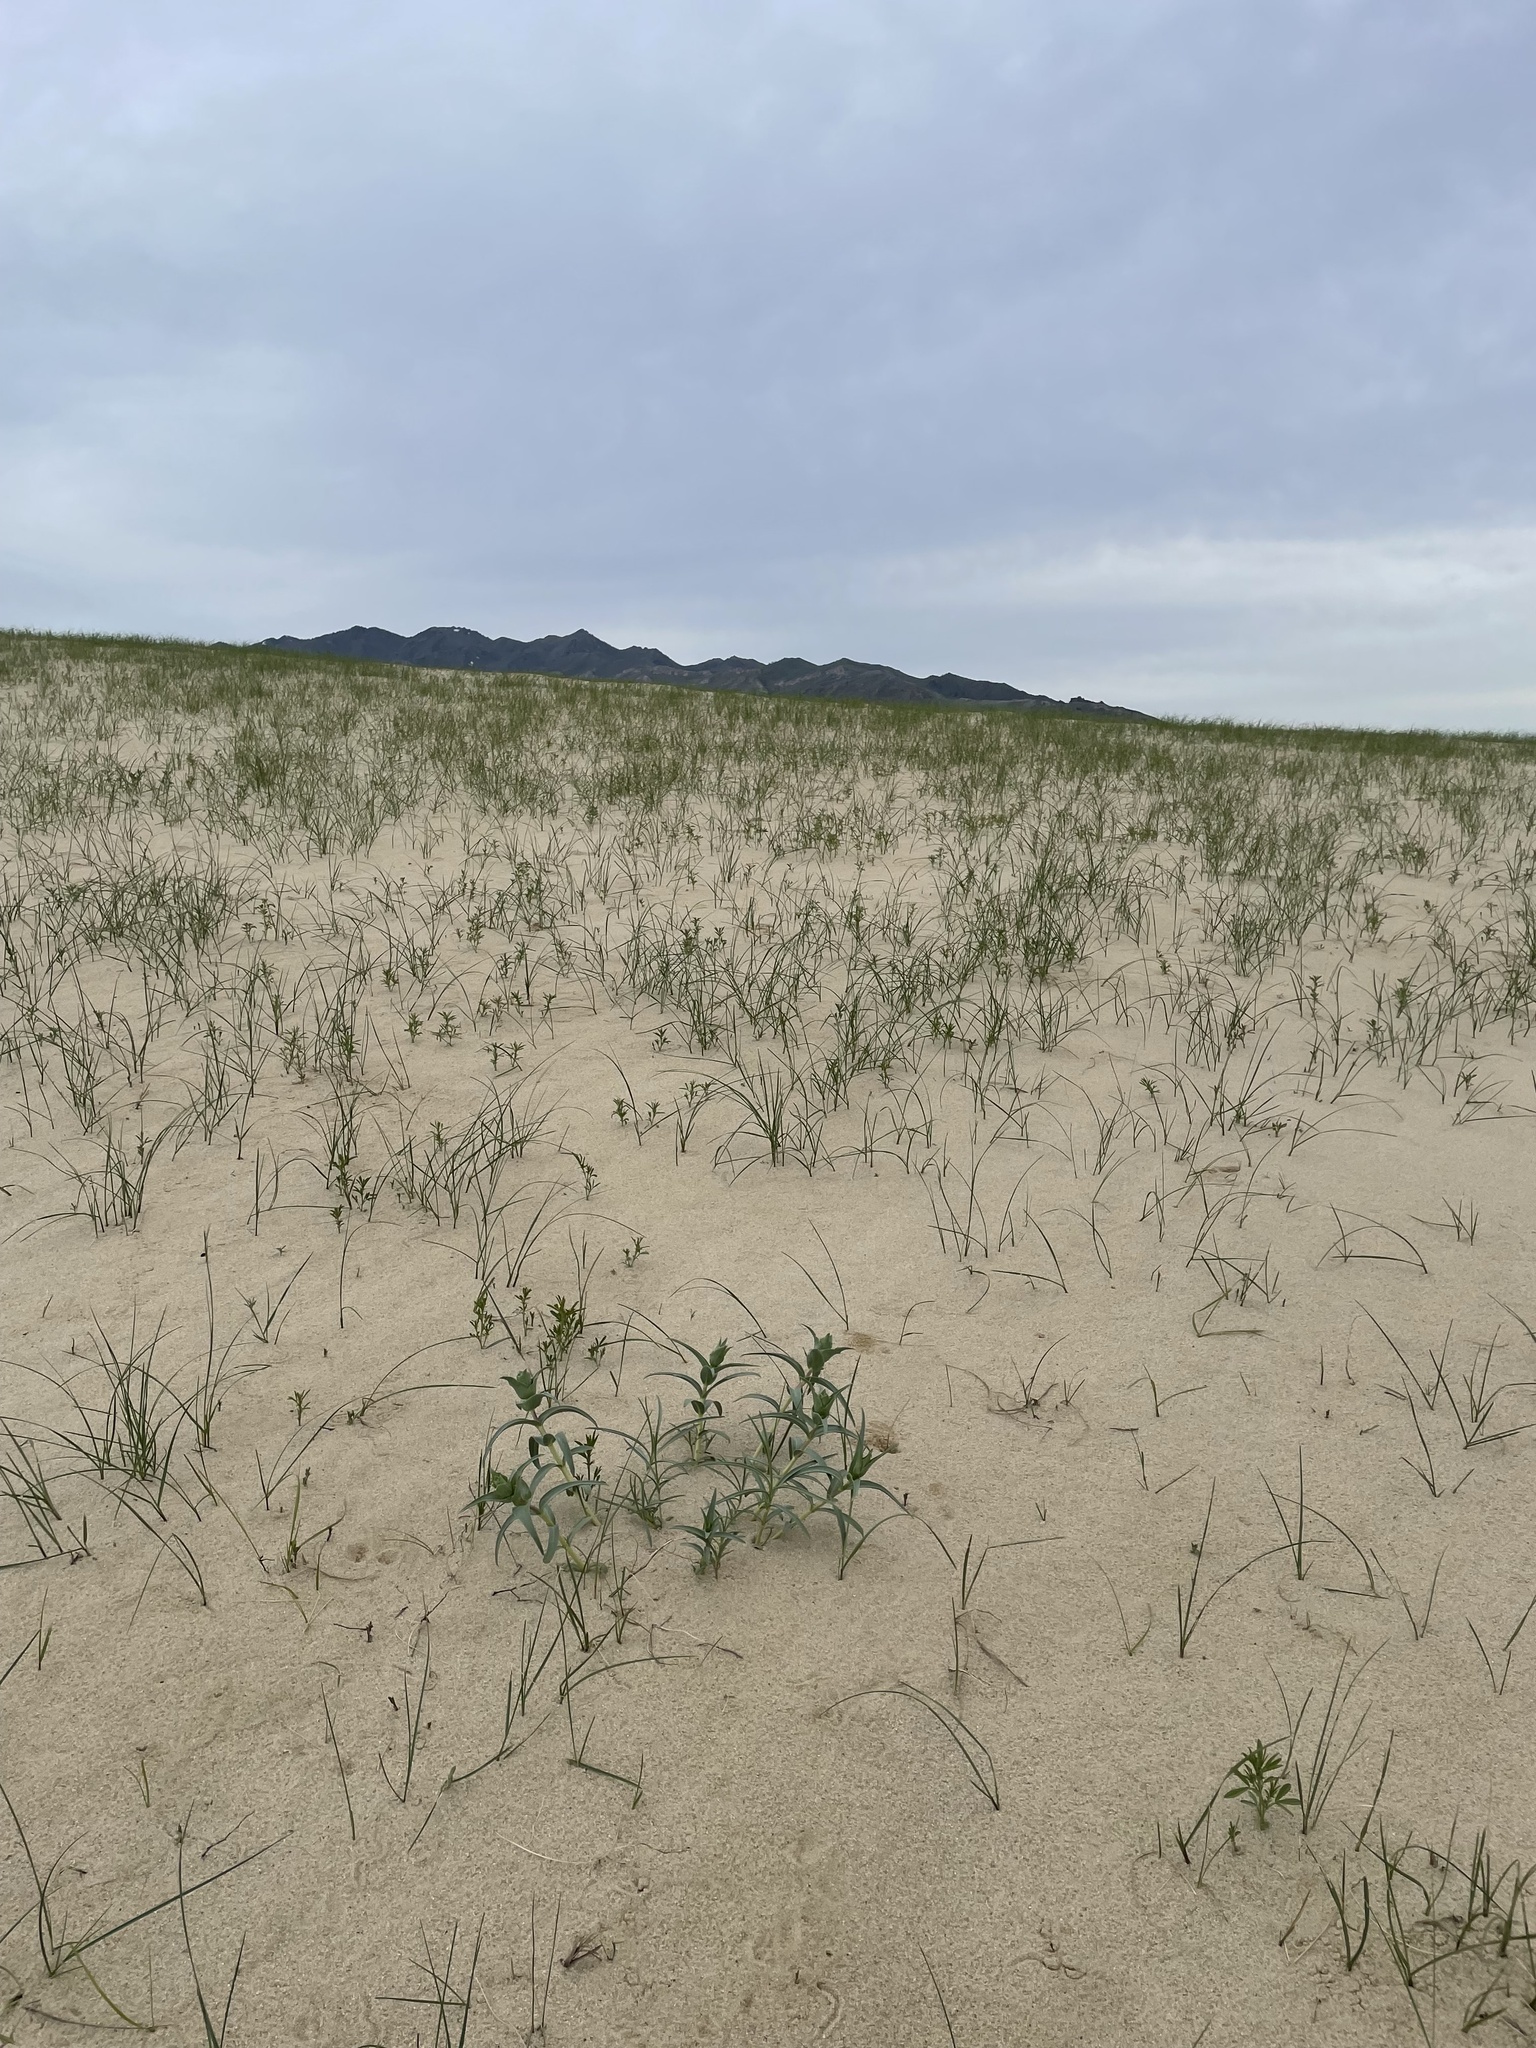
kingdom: Plantae
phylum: Tracheophyta
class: Magnoliopsida
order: Lamiales
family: Plantaginaceae
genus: Penstemon
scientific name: Penstemon haydenii
